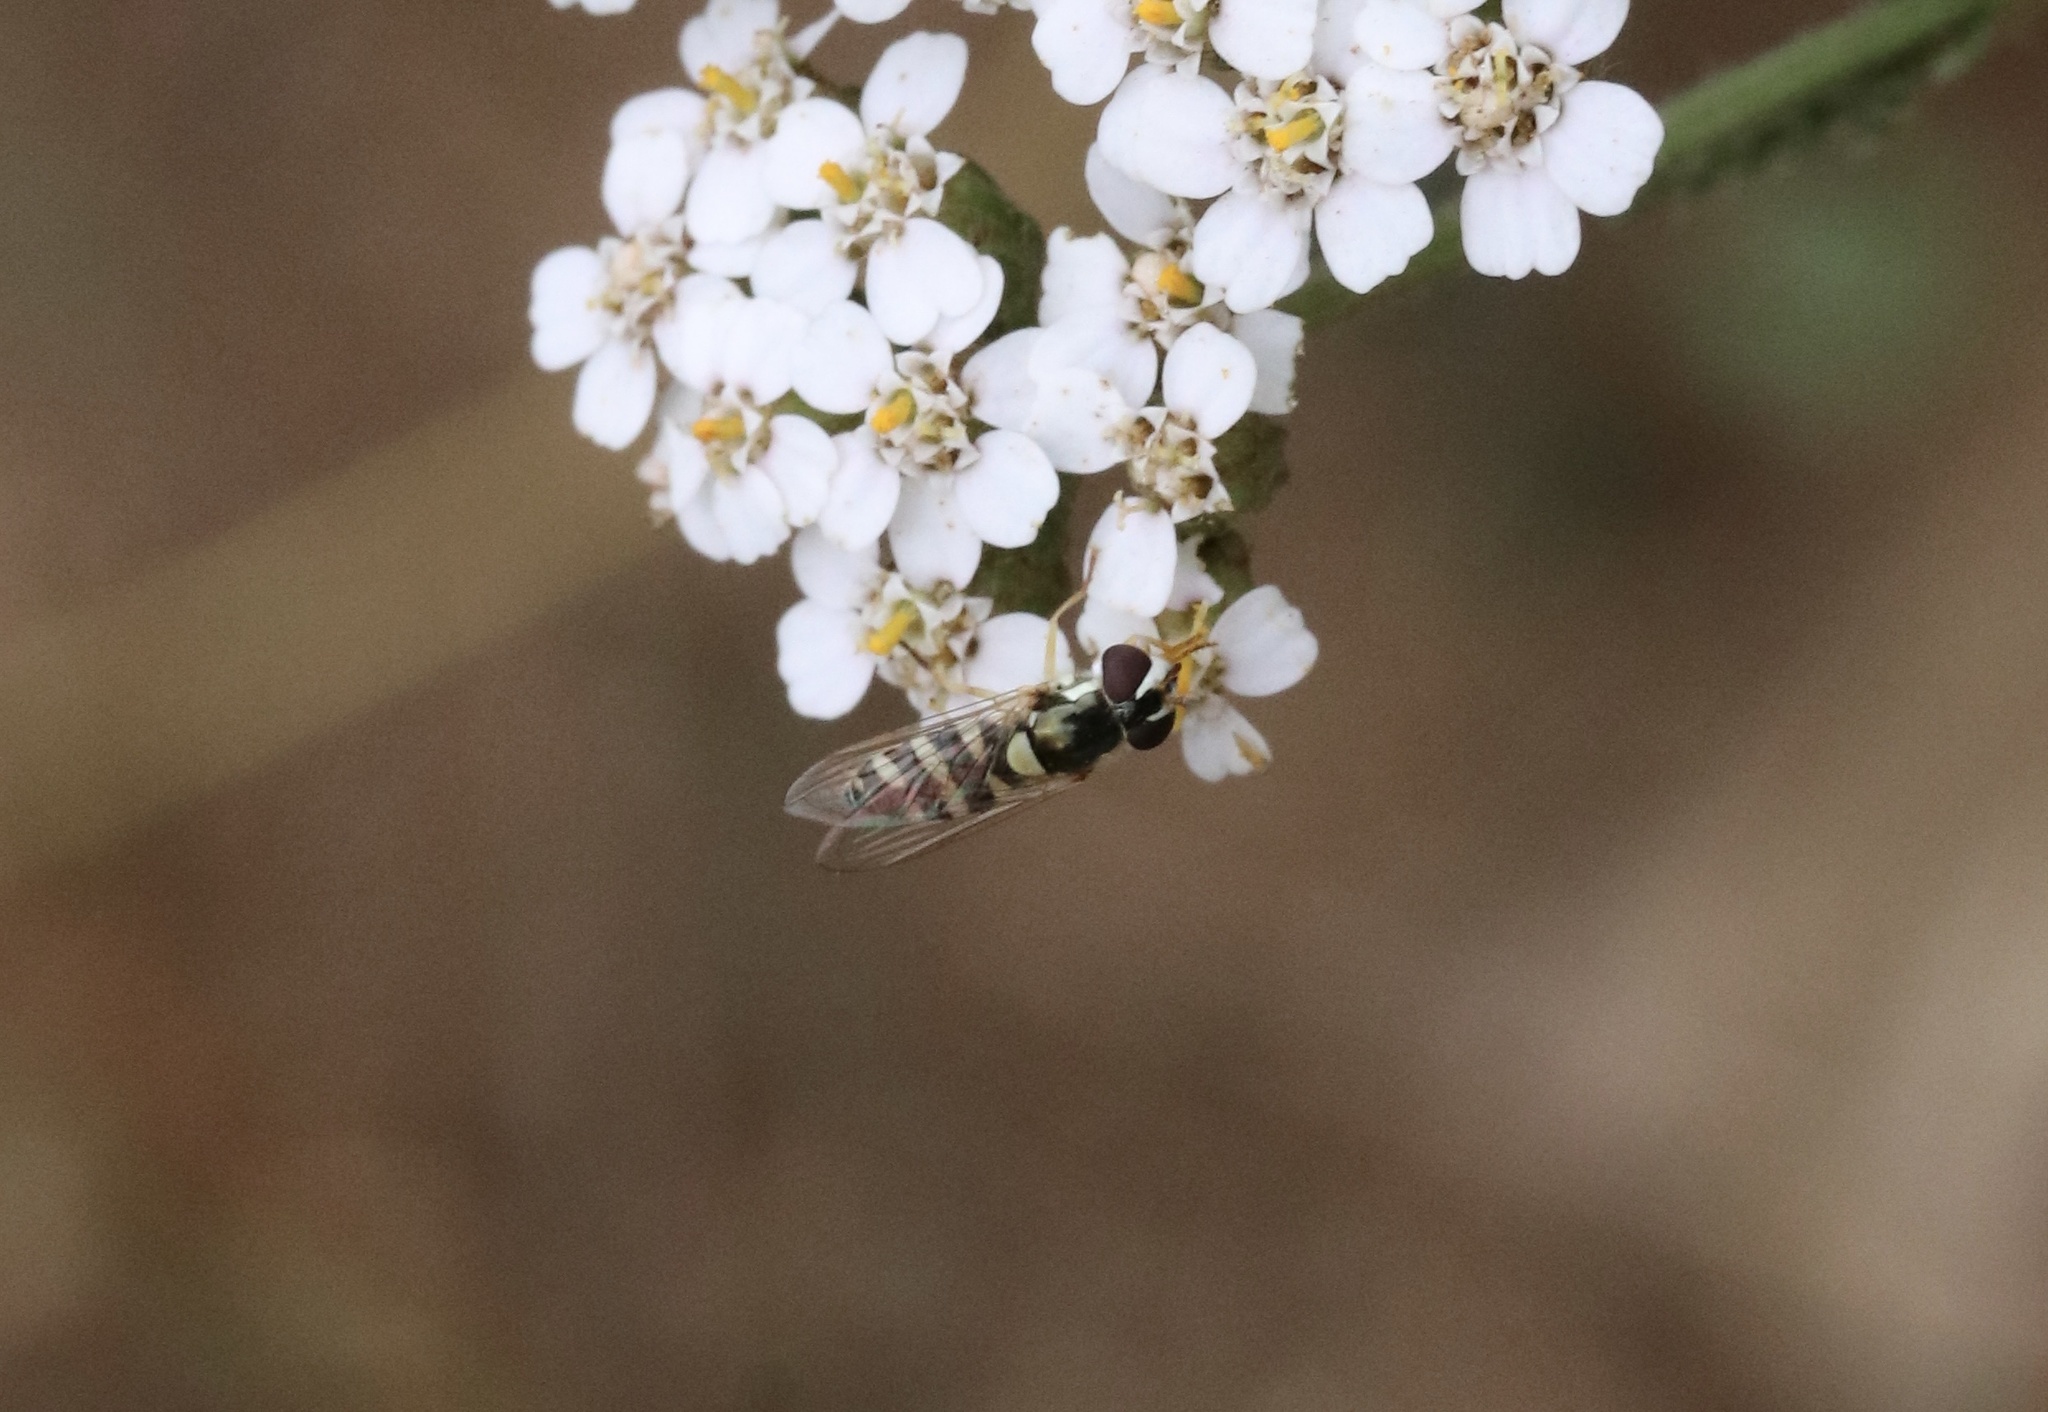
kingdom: Animalia
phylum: Arthropoda
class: Insecta
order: Diptera
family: Syrphidae
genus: Allograpta
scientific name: Allograpta pulchra
